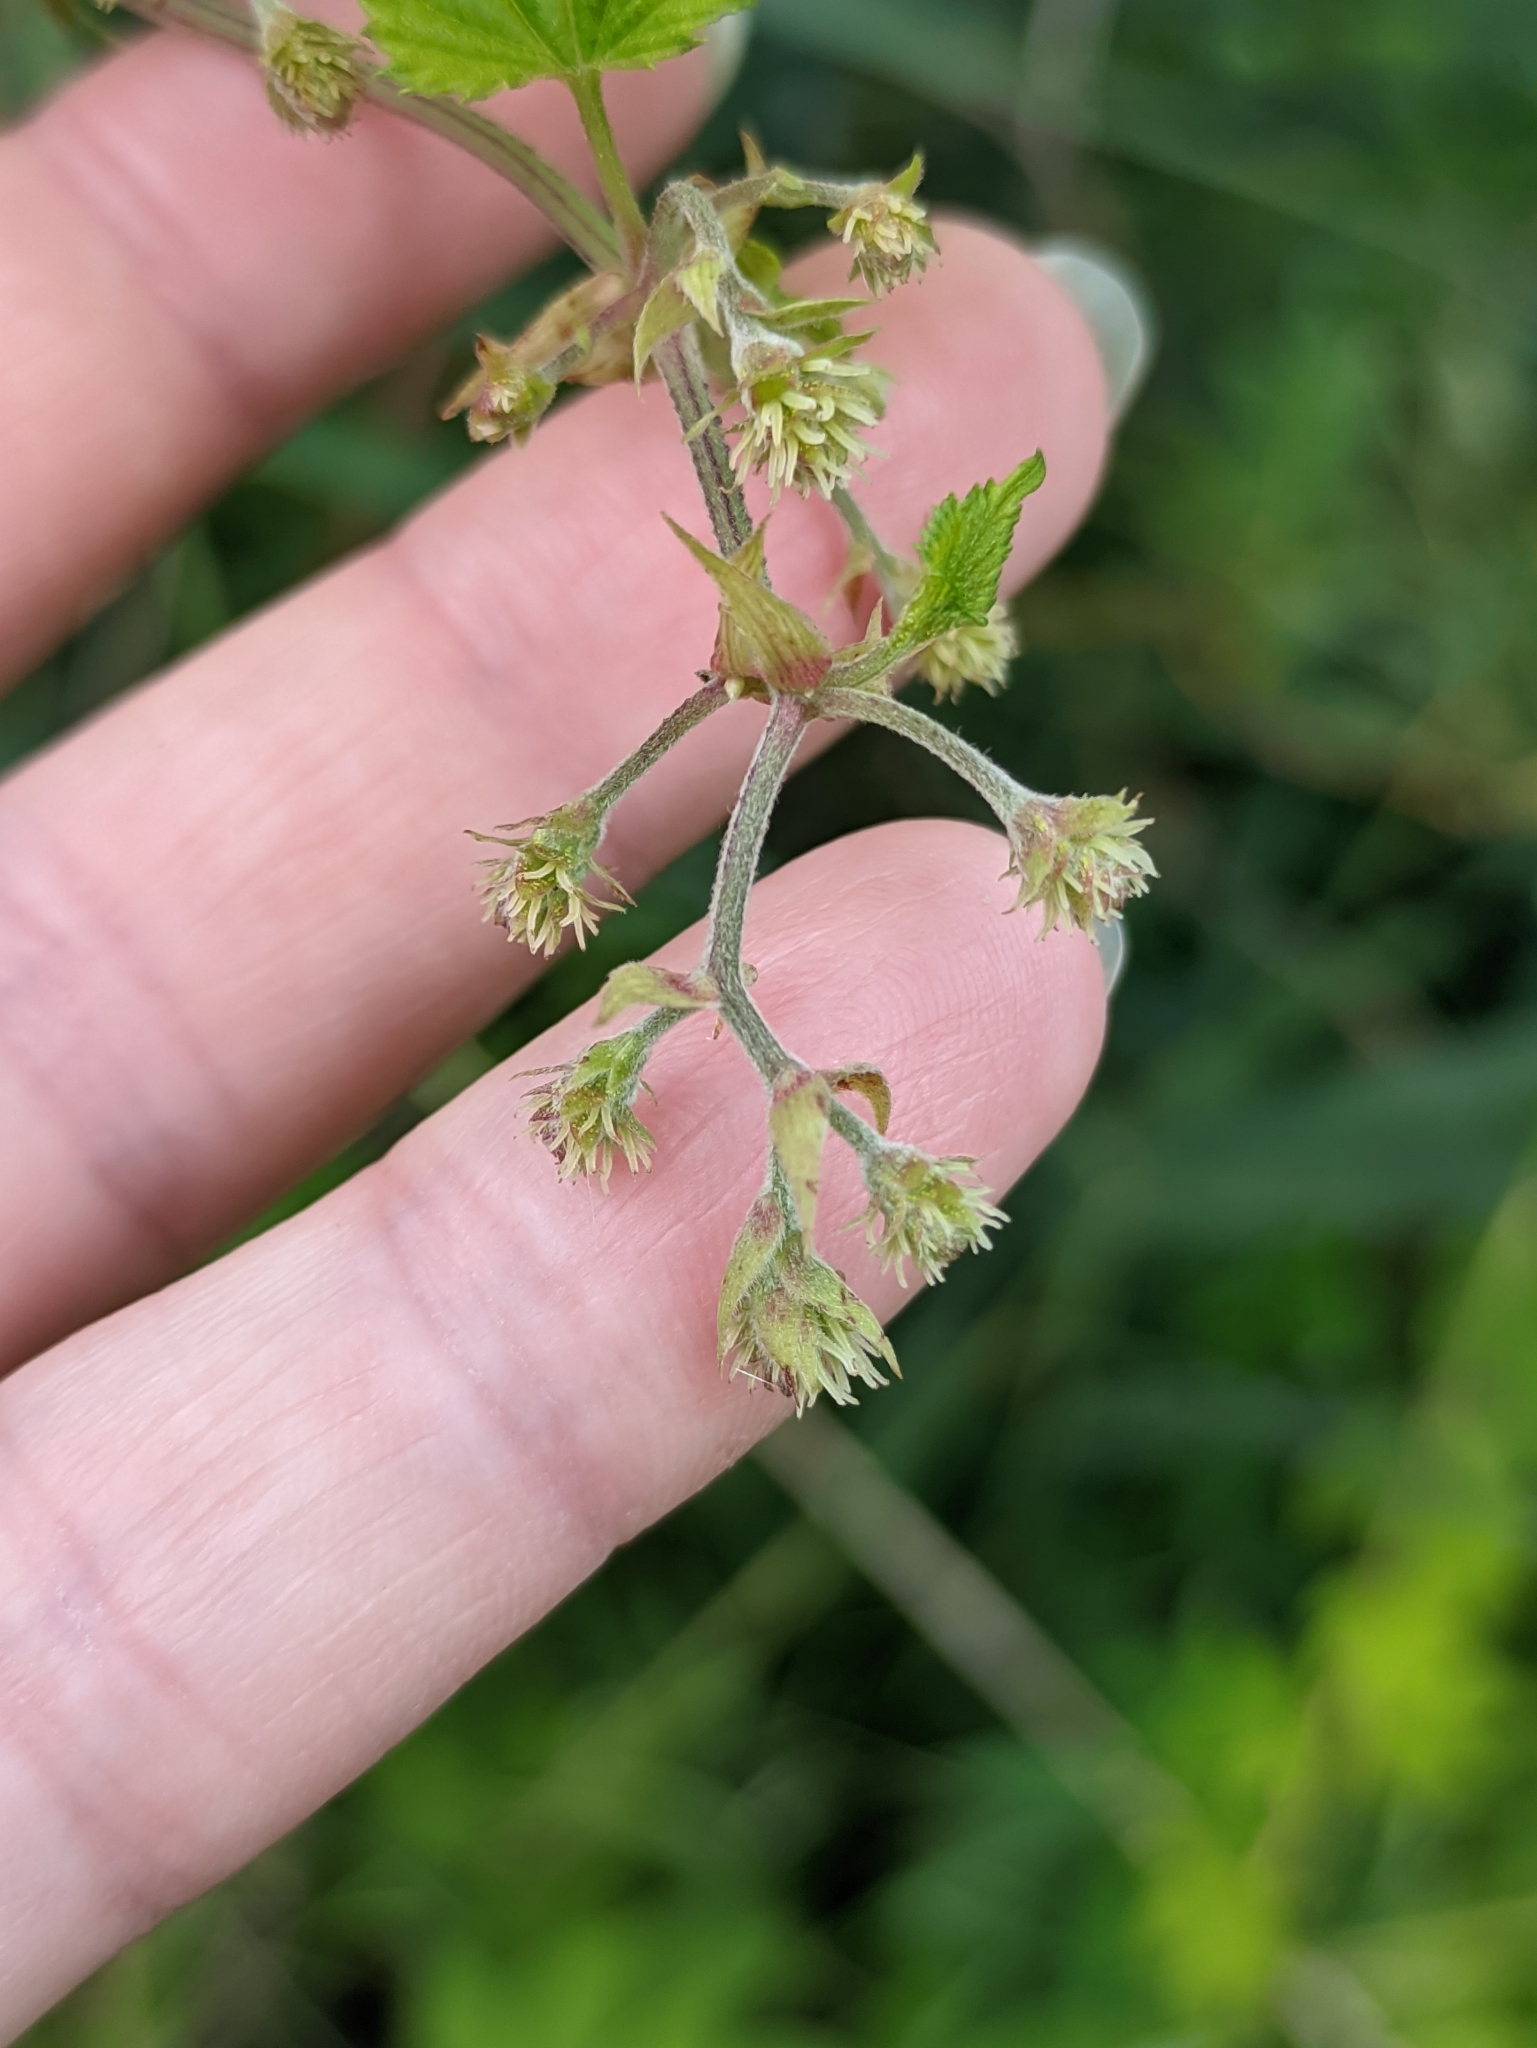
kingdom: Plantae
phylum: Tracheophyta
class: Magnoliopsida
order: Rosales
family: Cannabaceae
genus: Humulus
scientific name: Humulus lupulus
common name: Hop
